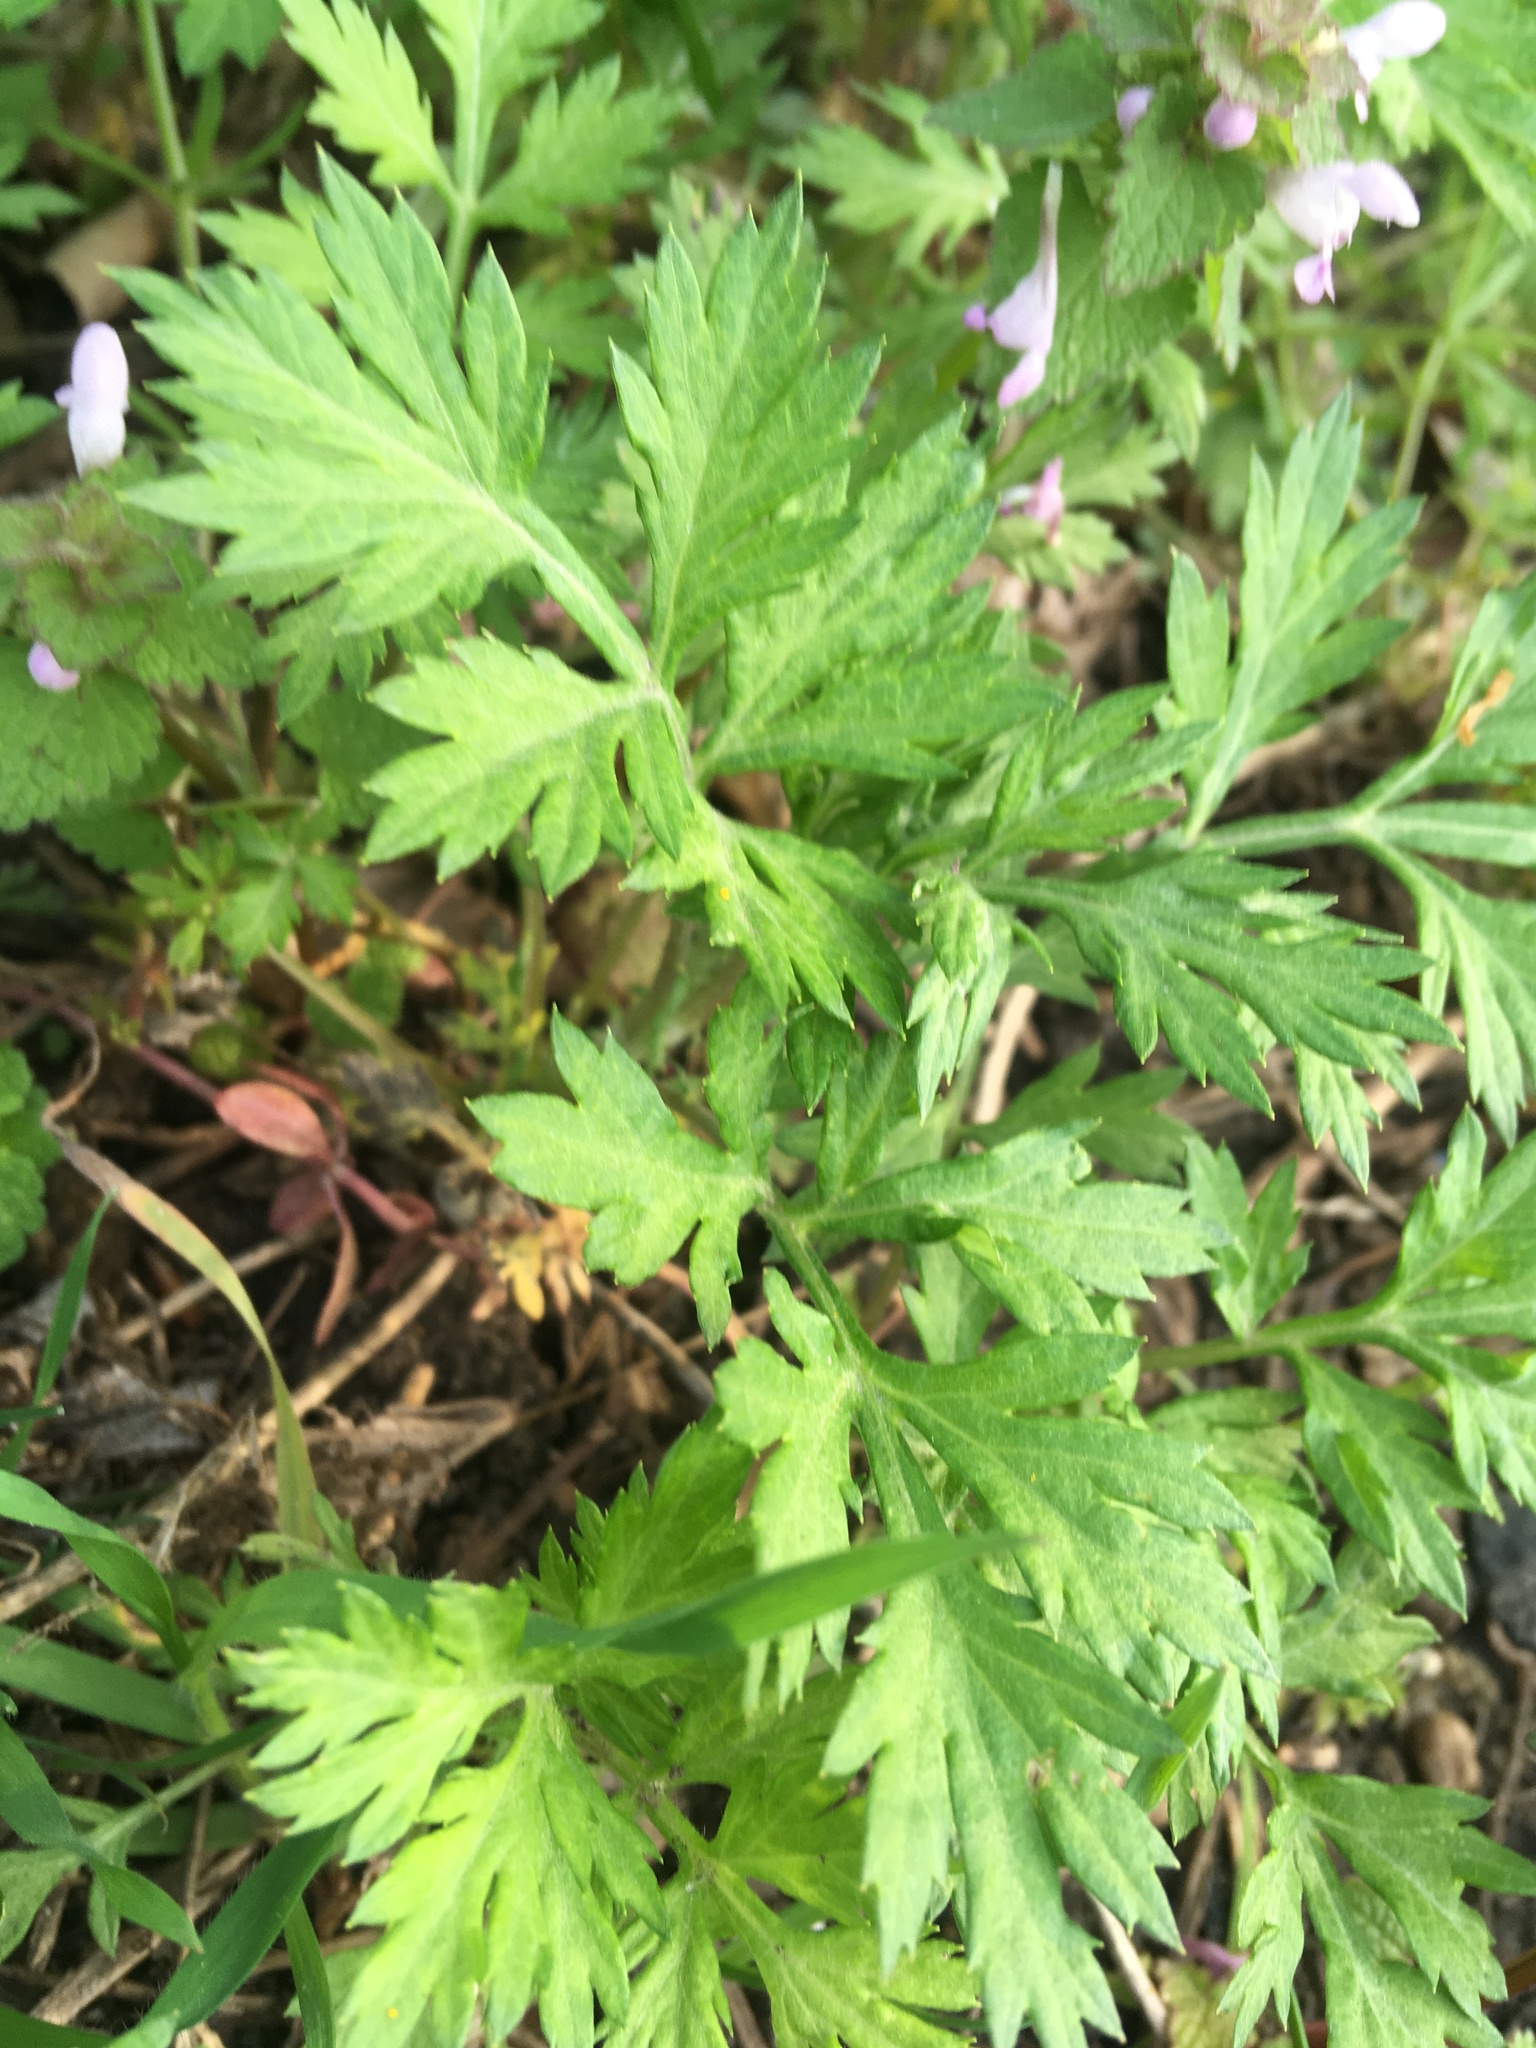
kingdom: Plantae
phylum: Tracheophyta
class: Magnoliopsida
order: Asterales
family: Asteraceae
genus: Artemisia
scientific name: Artemisia vulgaris
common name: Mugwort
